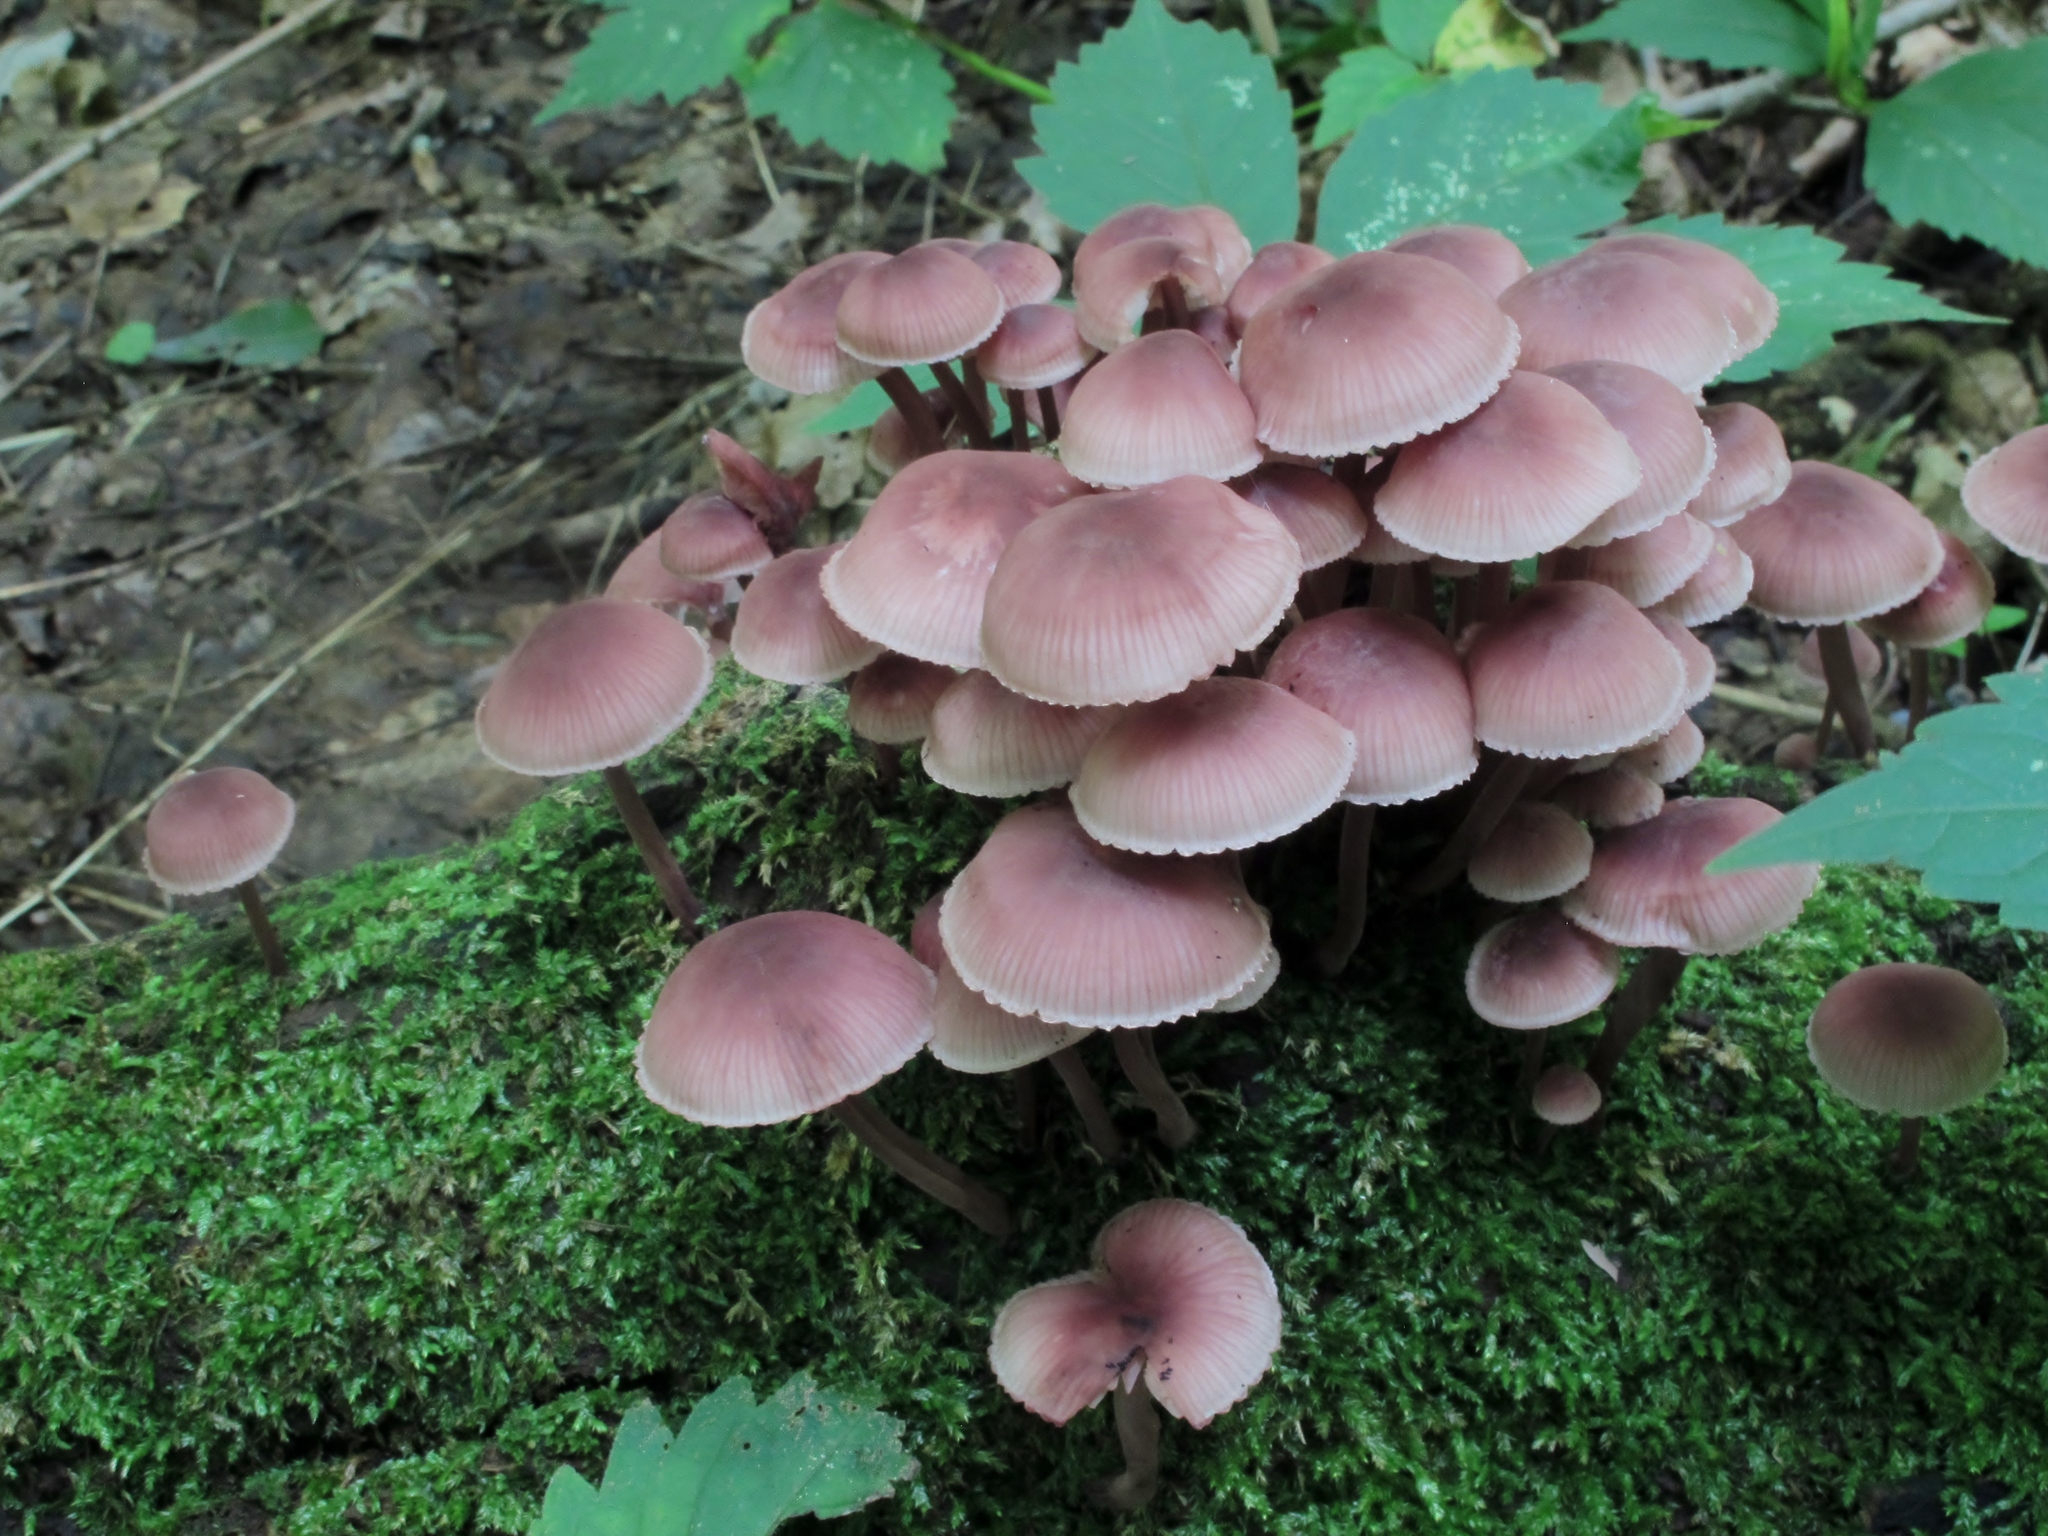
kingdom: Fungi
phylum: Basidiomycota
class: Agaricomycetes
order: Agaricales
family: Mycenaceae
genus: Mycena
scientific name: Mycena haematopus
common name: Burgundydrop bonnet
